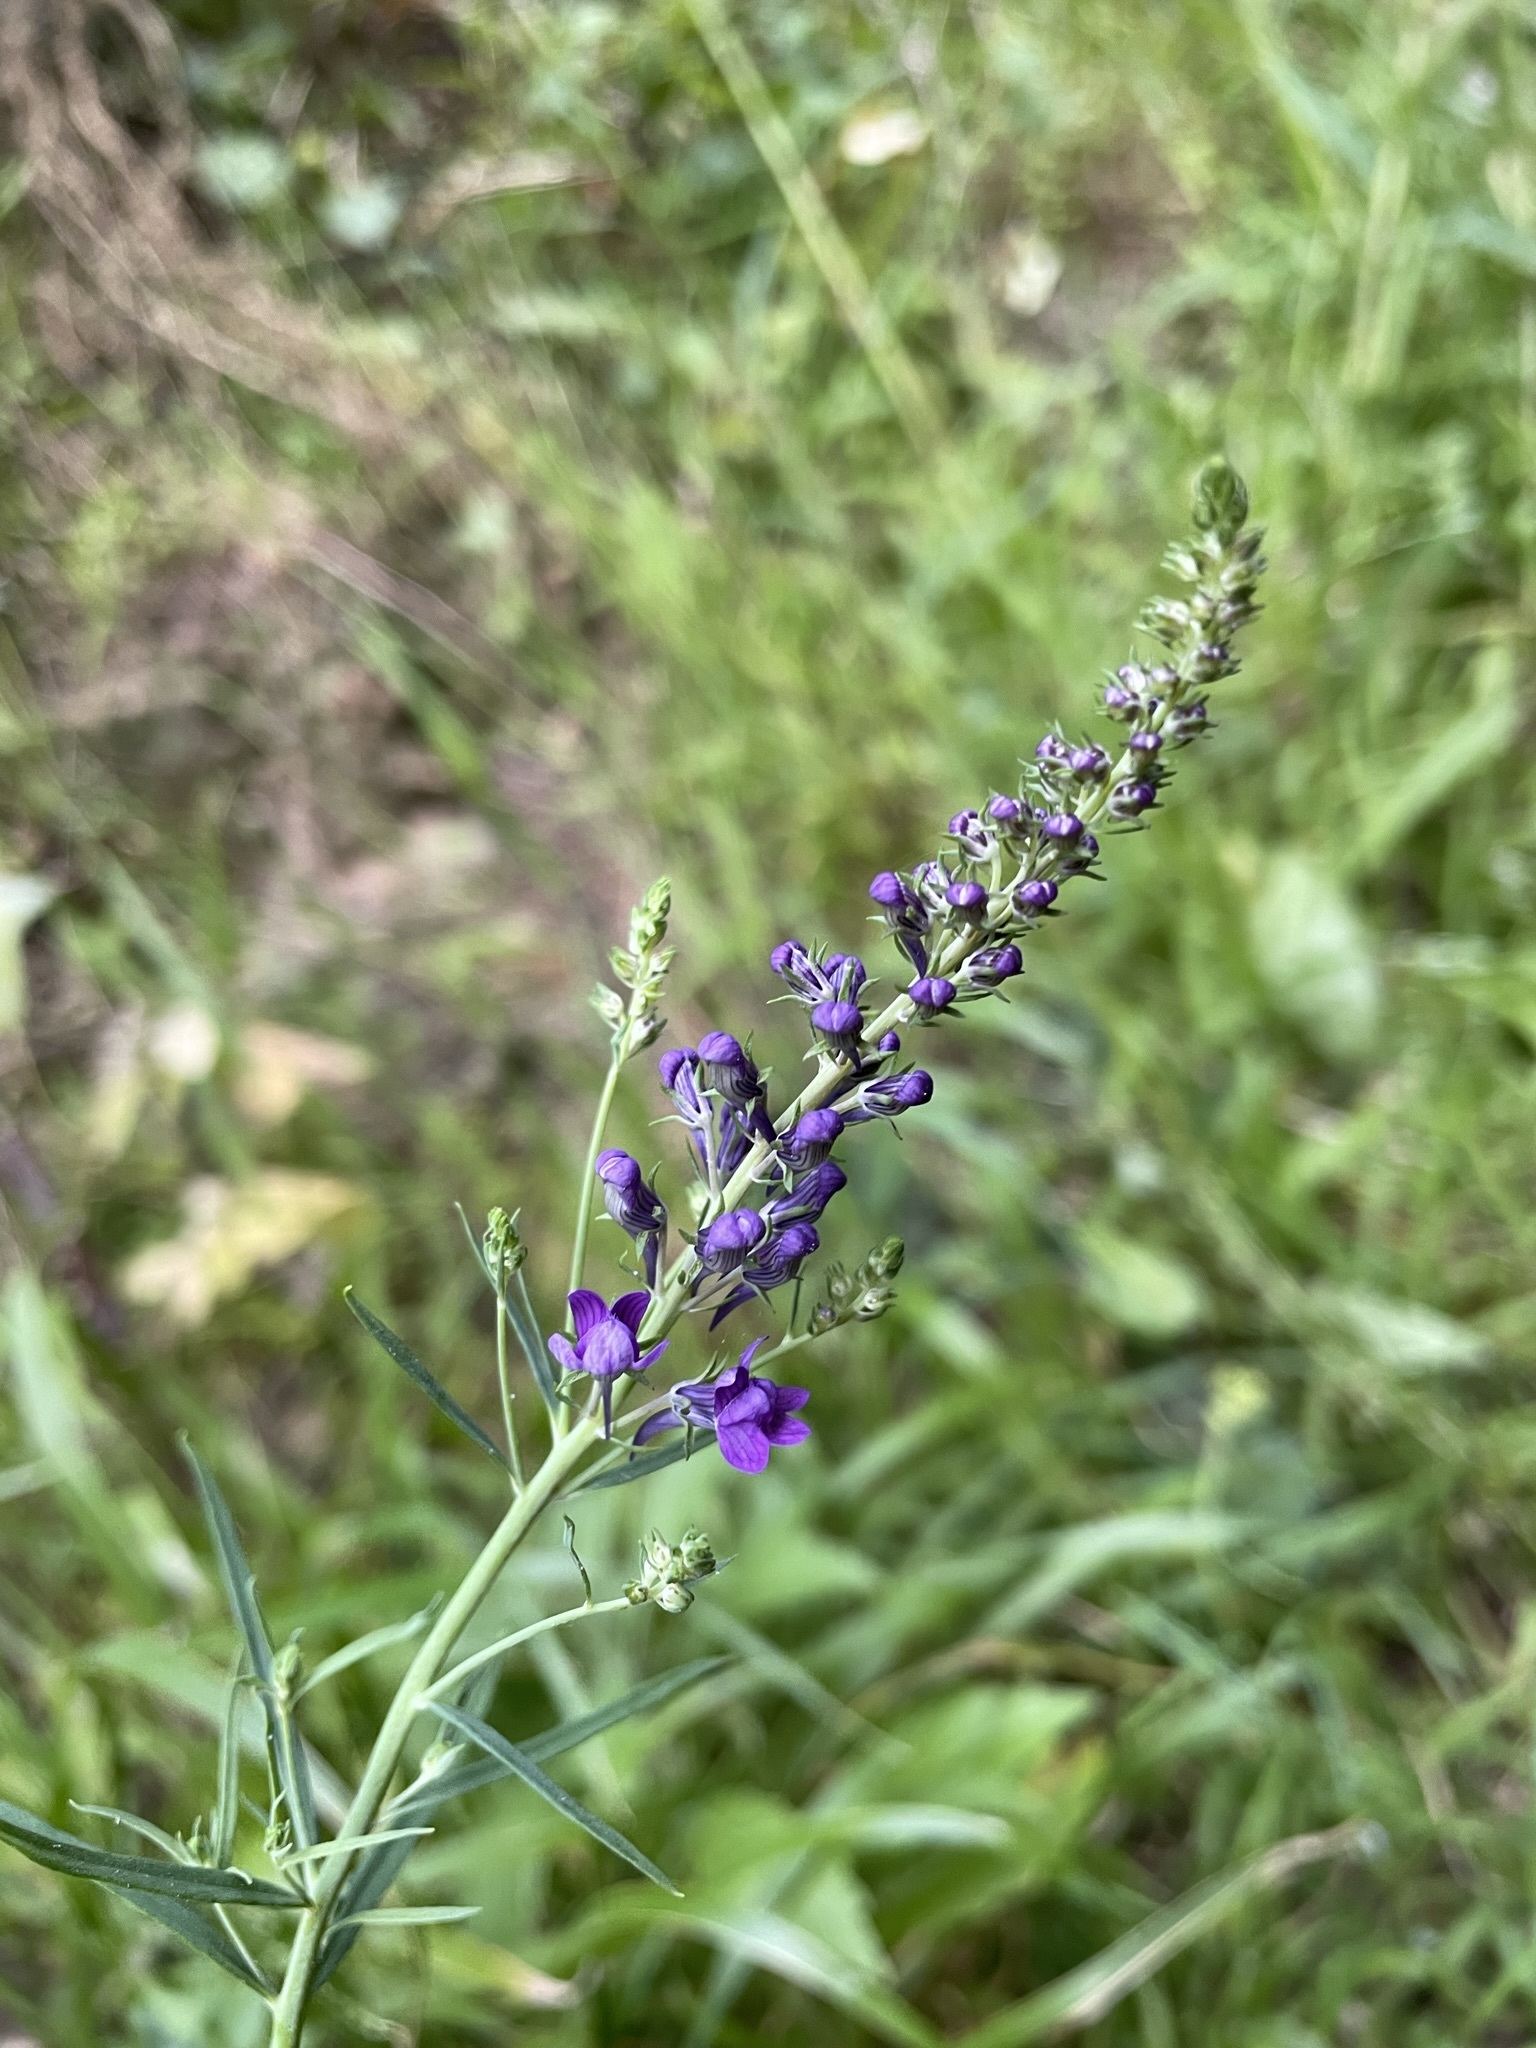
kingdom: Plantae
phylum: Tracheophyta
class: Magnoliopsida
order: Lamiales
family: Plantaginaceae
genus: Linaria
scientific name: Linaria purpurea
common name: Purple toadflax
